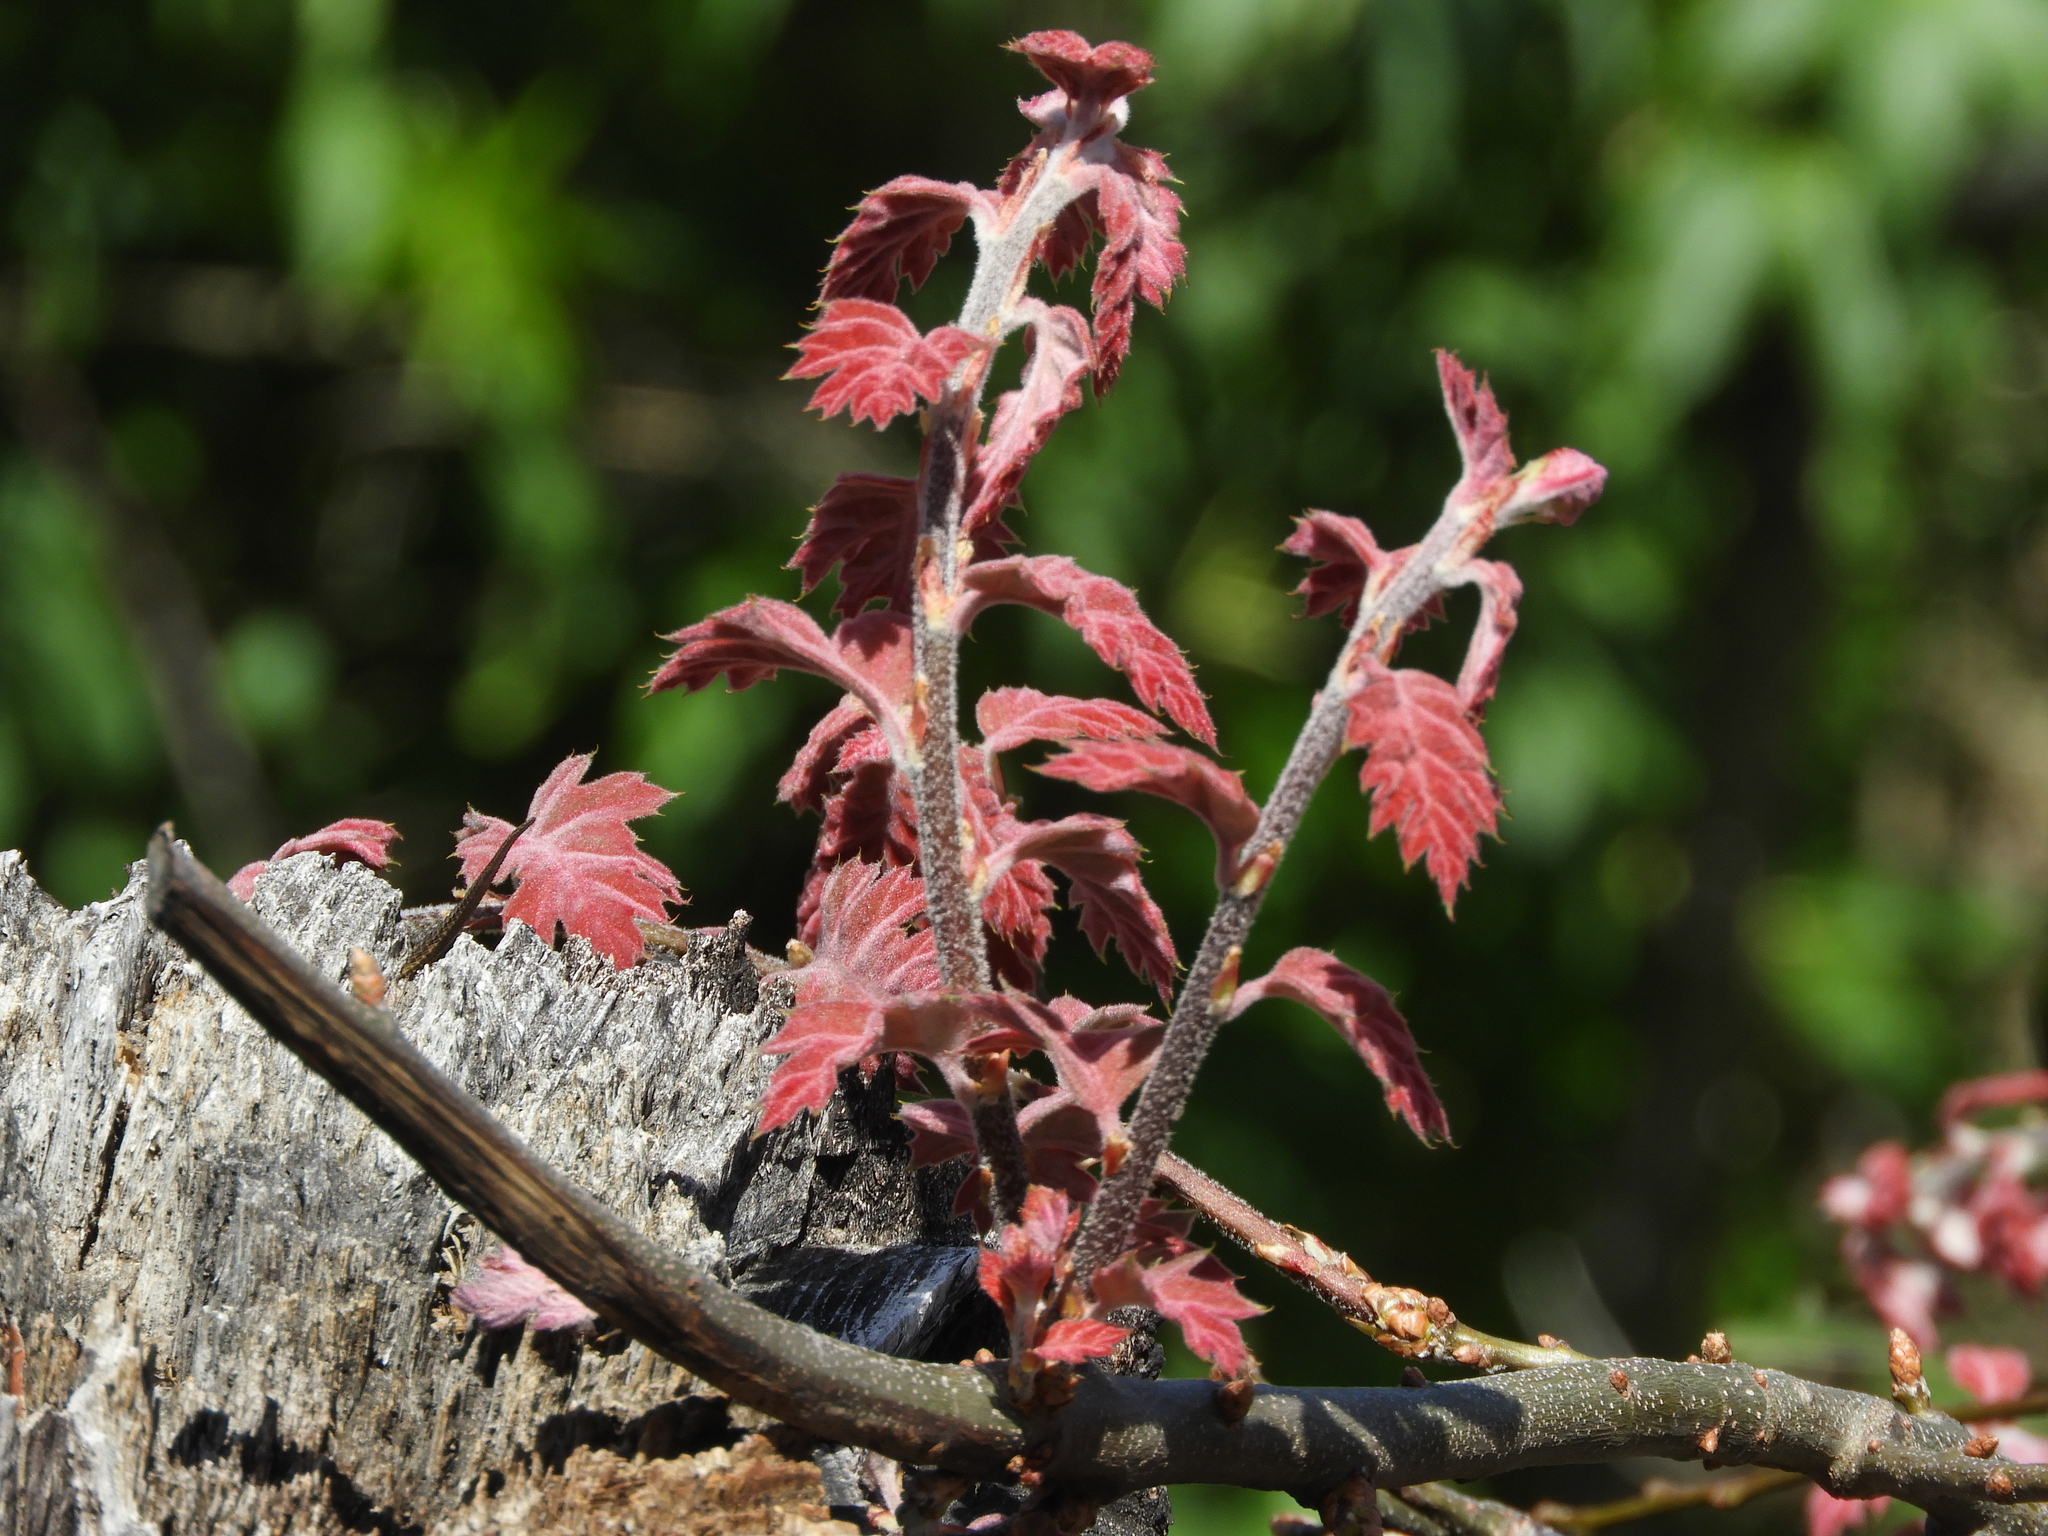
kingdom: Plantae
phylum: Tracheophyta
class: Magnoliopsida
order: Fagales
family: Fagaceae
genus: Quercus
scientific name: Quercus kelloggii
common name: California black oak
